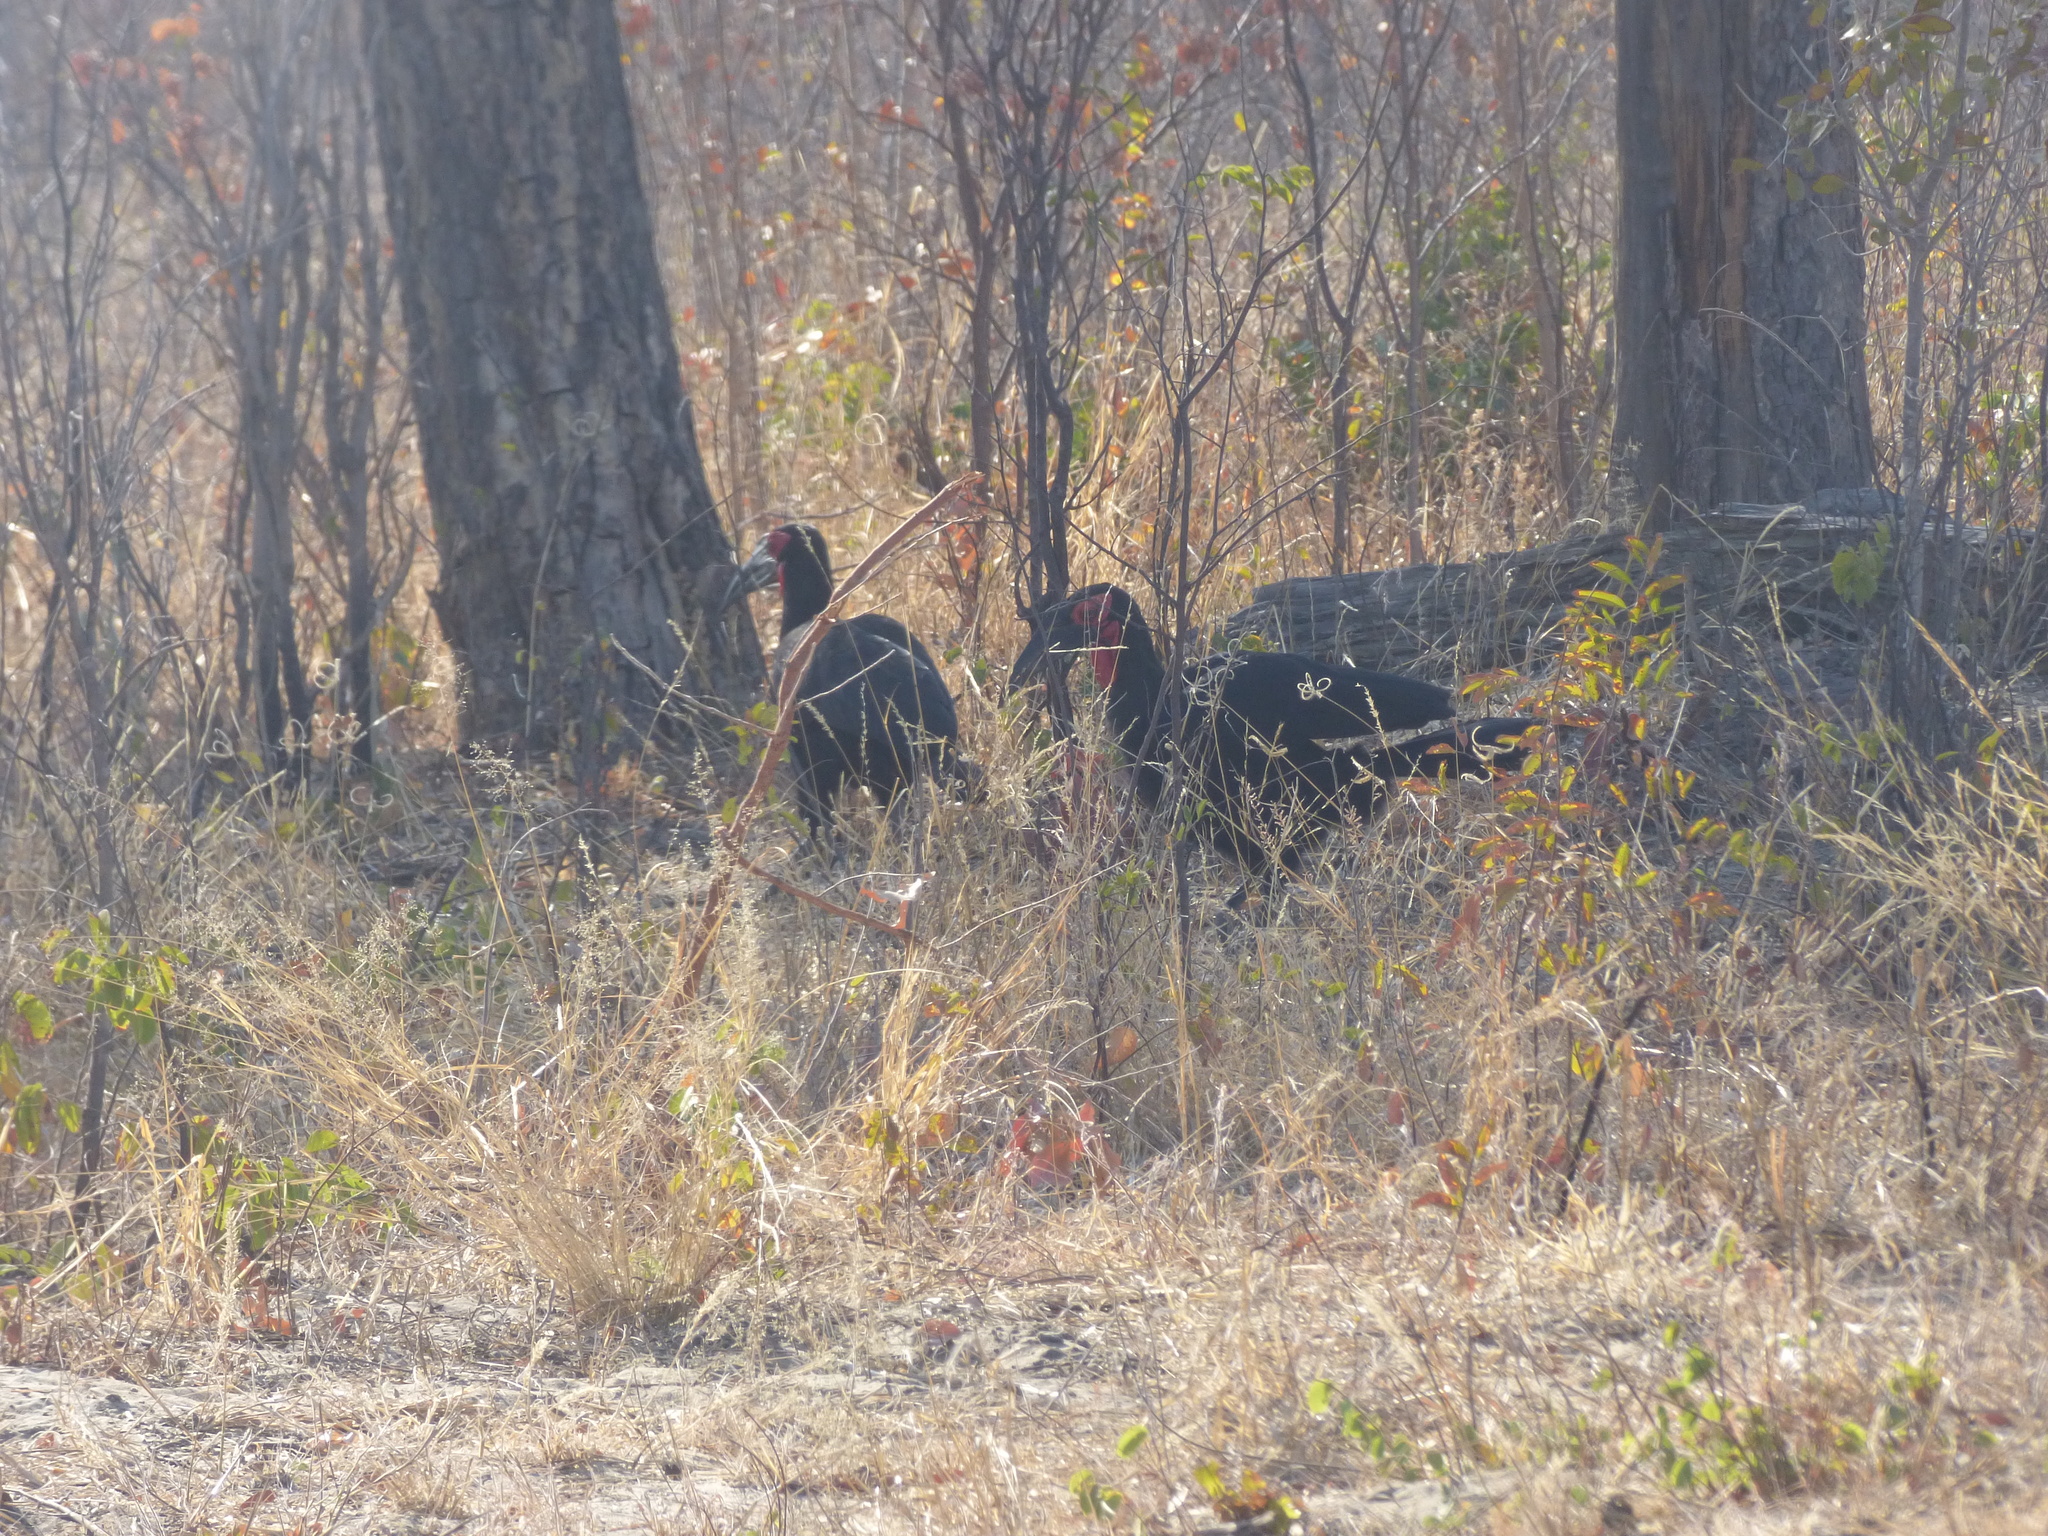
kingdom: Animalia
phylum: Chordata
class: Aves
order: Bucerotiformes
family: Bucorvidae
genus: Bucorvus
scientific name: Bucorvus leadbeateri
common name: Southern ground-hornbill
